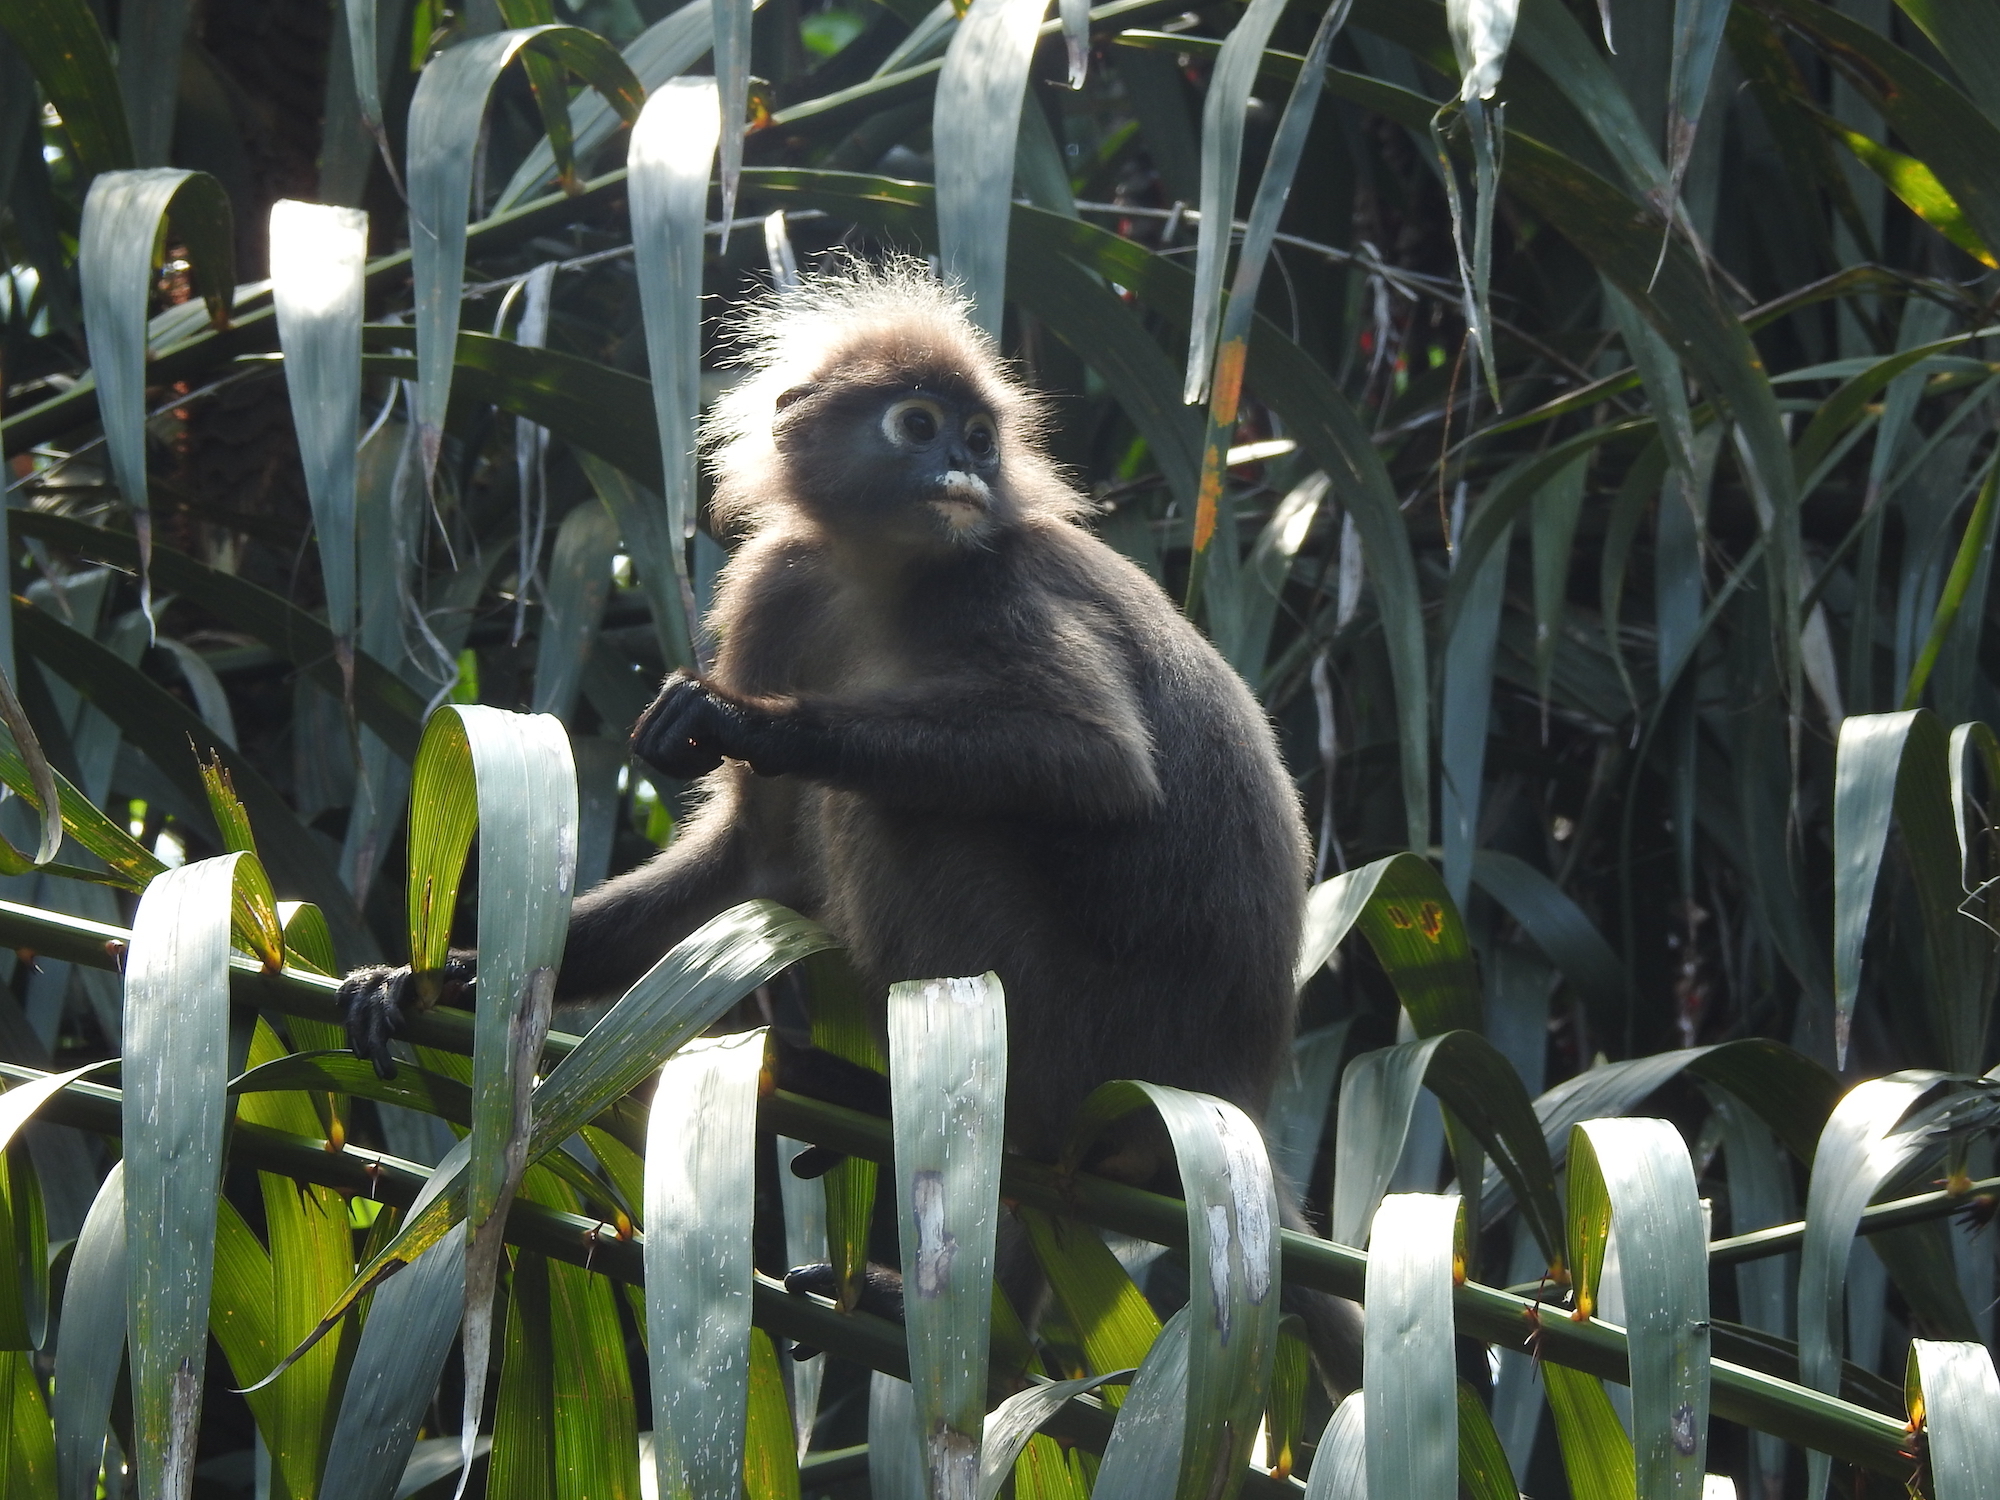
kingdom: Animalia
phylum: Chordata
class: Mammalia
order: Primates
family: Cercopithecidae
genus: Trachypithecus
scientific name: Trachypithecus obscurus
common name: Dusky leaf-monkey
